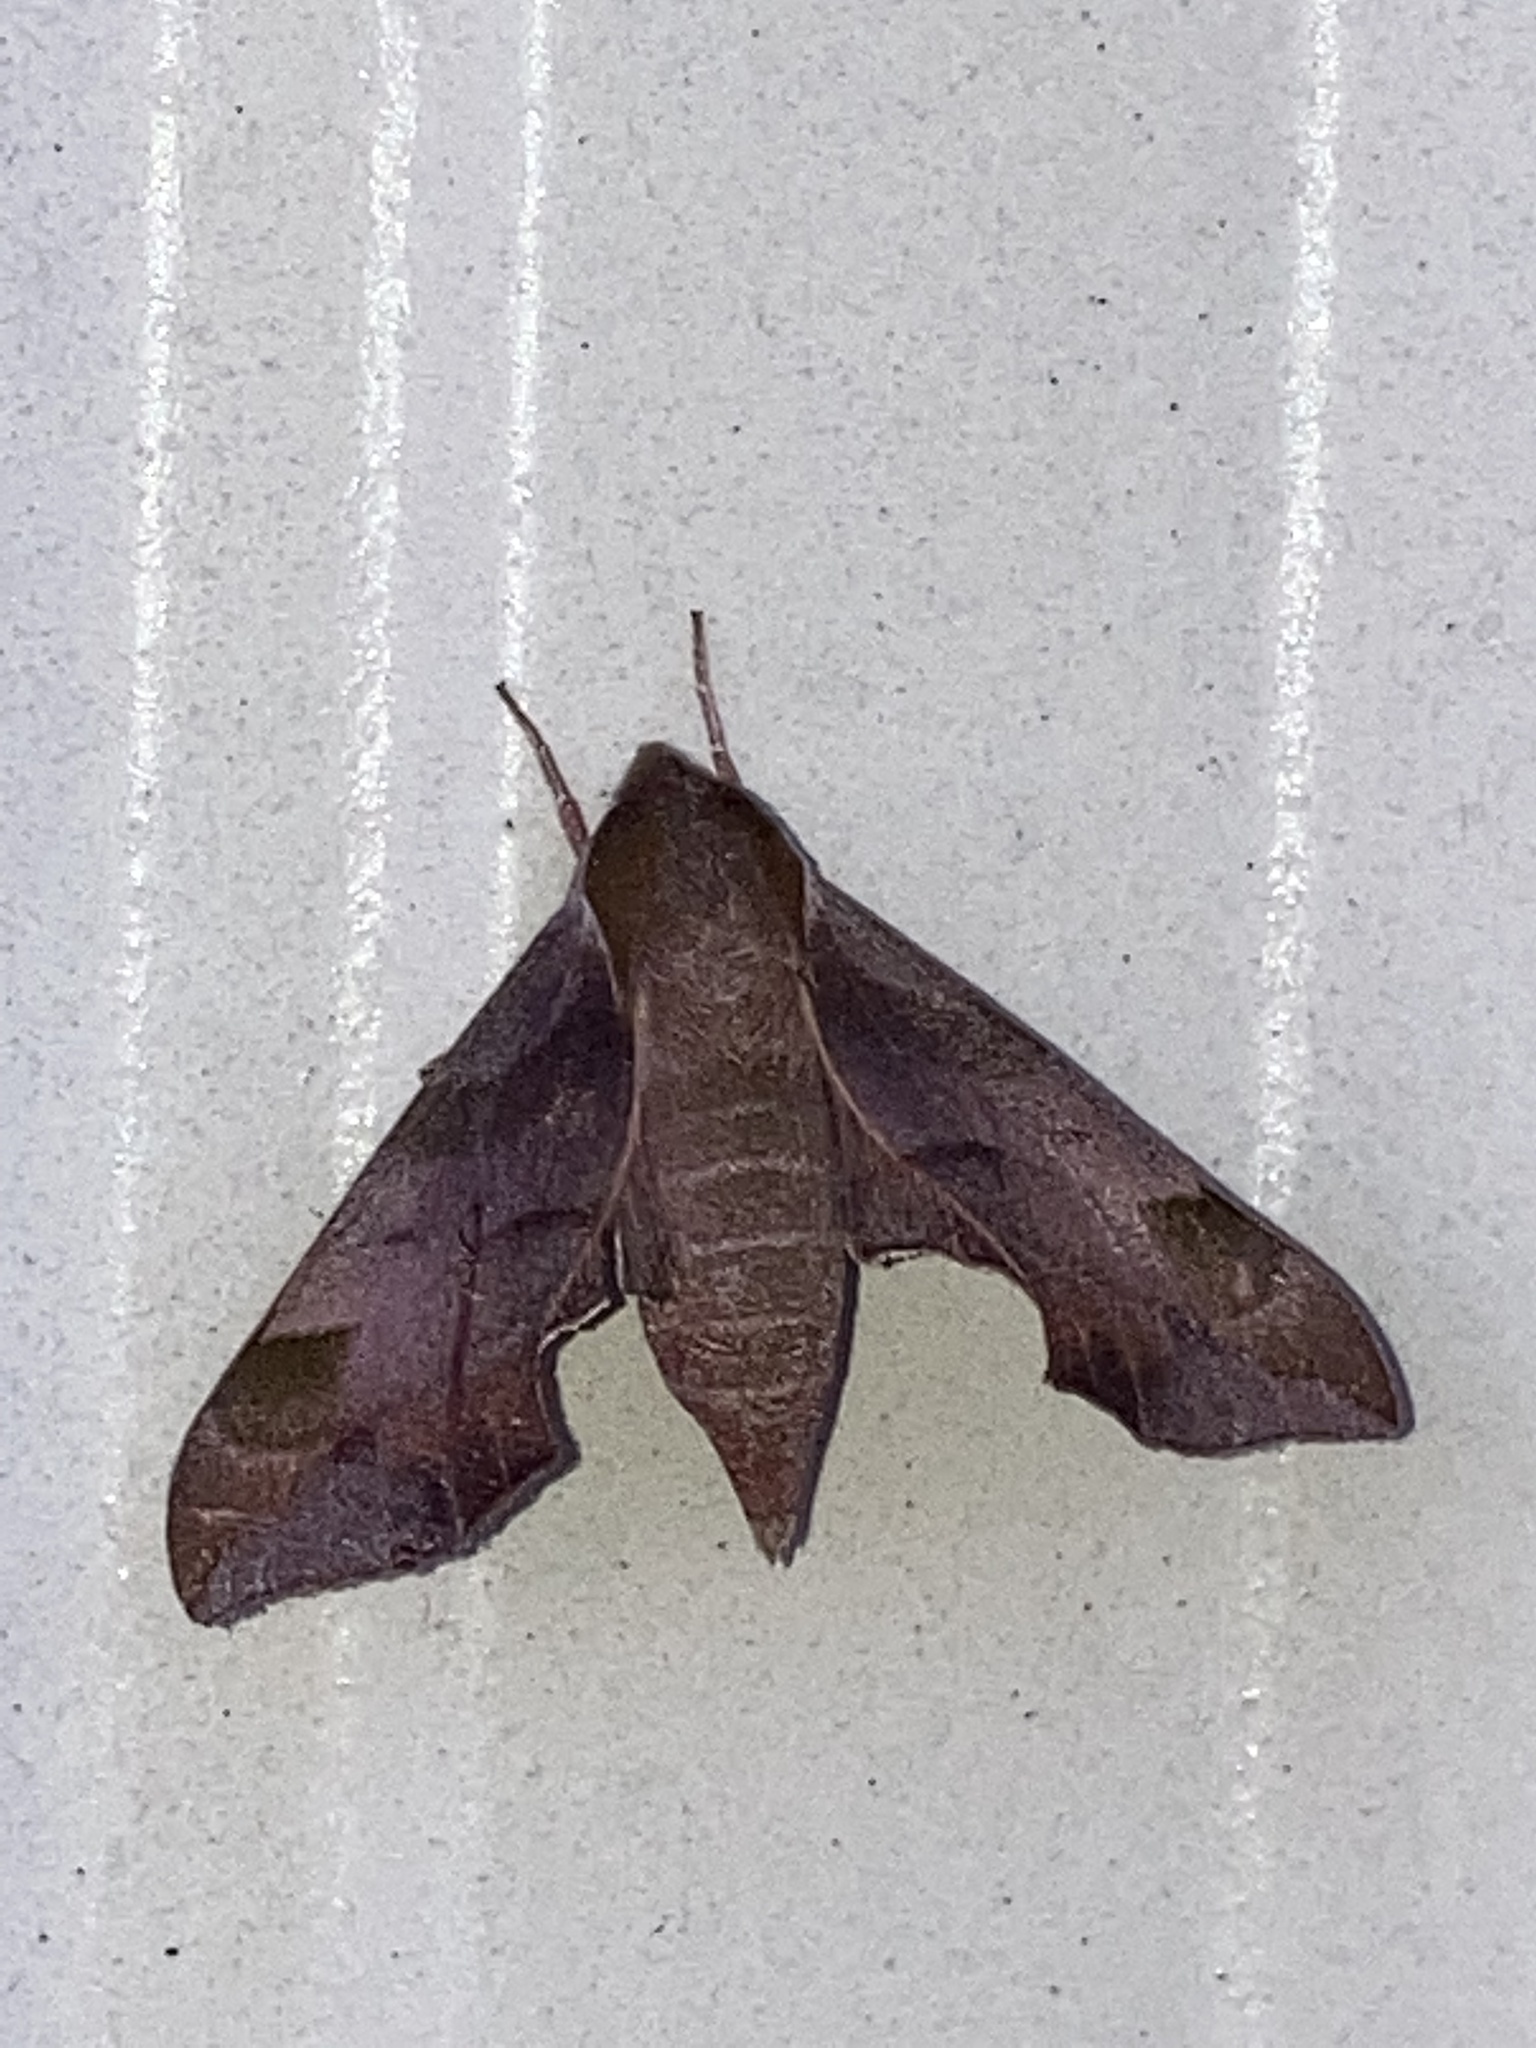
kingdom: Animalia
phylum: Arthropoda
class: Insecta
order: Lepidoptera
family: Sphingidae
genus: Darapsa
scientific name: Darapsa myron
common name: Hog sphinx
